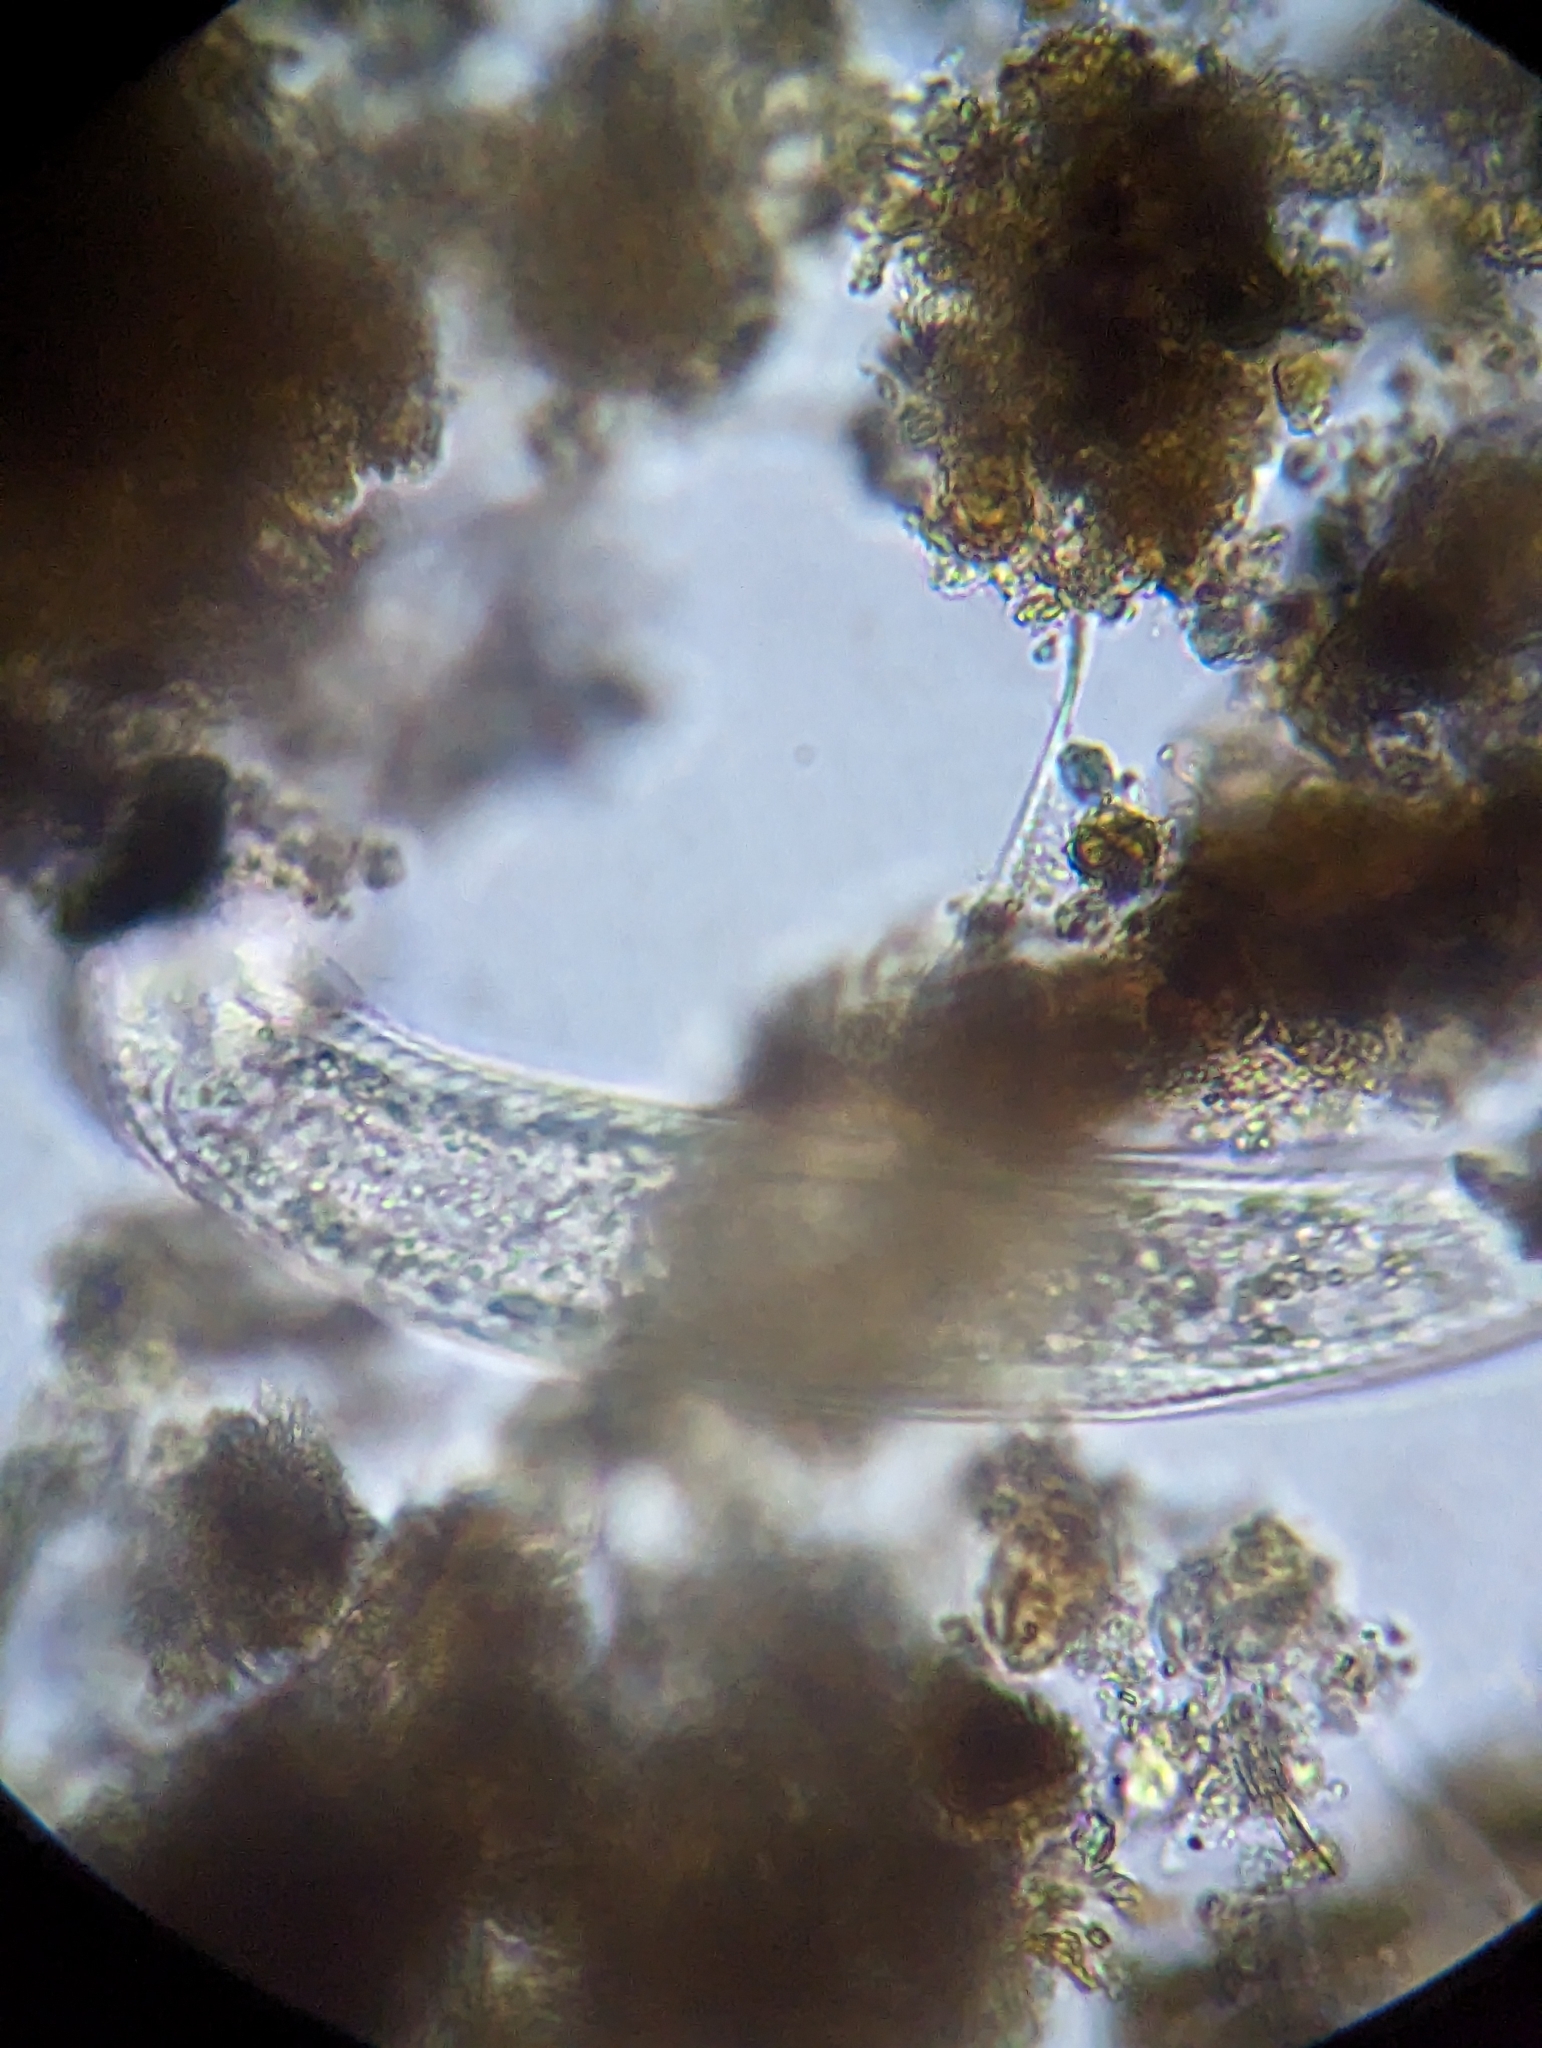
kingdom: Animalia
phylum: Gastrotricha
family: Chaetonotidae
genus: Polymerurus
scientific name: Polymerurus rhomboides
